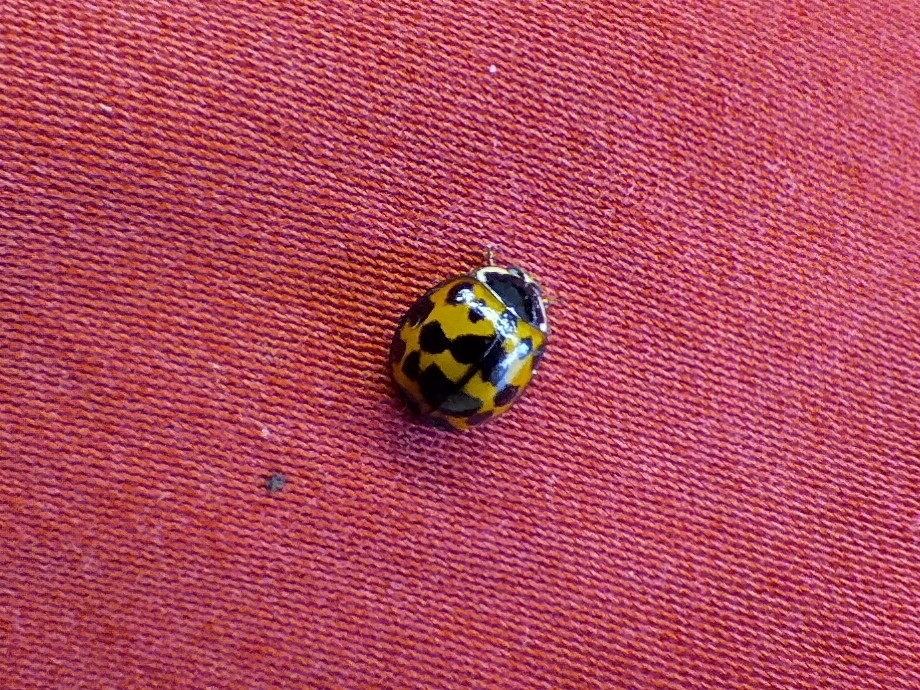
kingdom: Animalia
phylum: Arthropoda
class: Insecta
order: Coleoptera
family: Coccinellidae
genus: Harmonia
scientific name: Harmonia axyridis
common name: Harlequin ladybird
